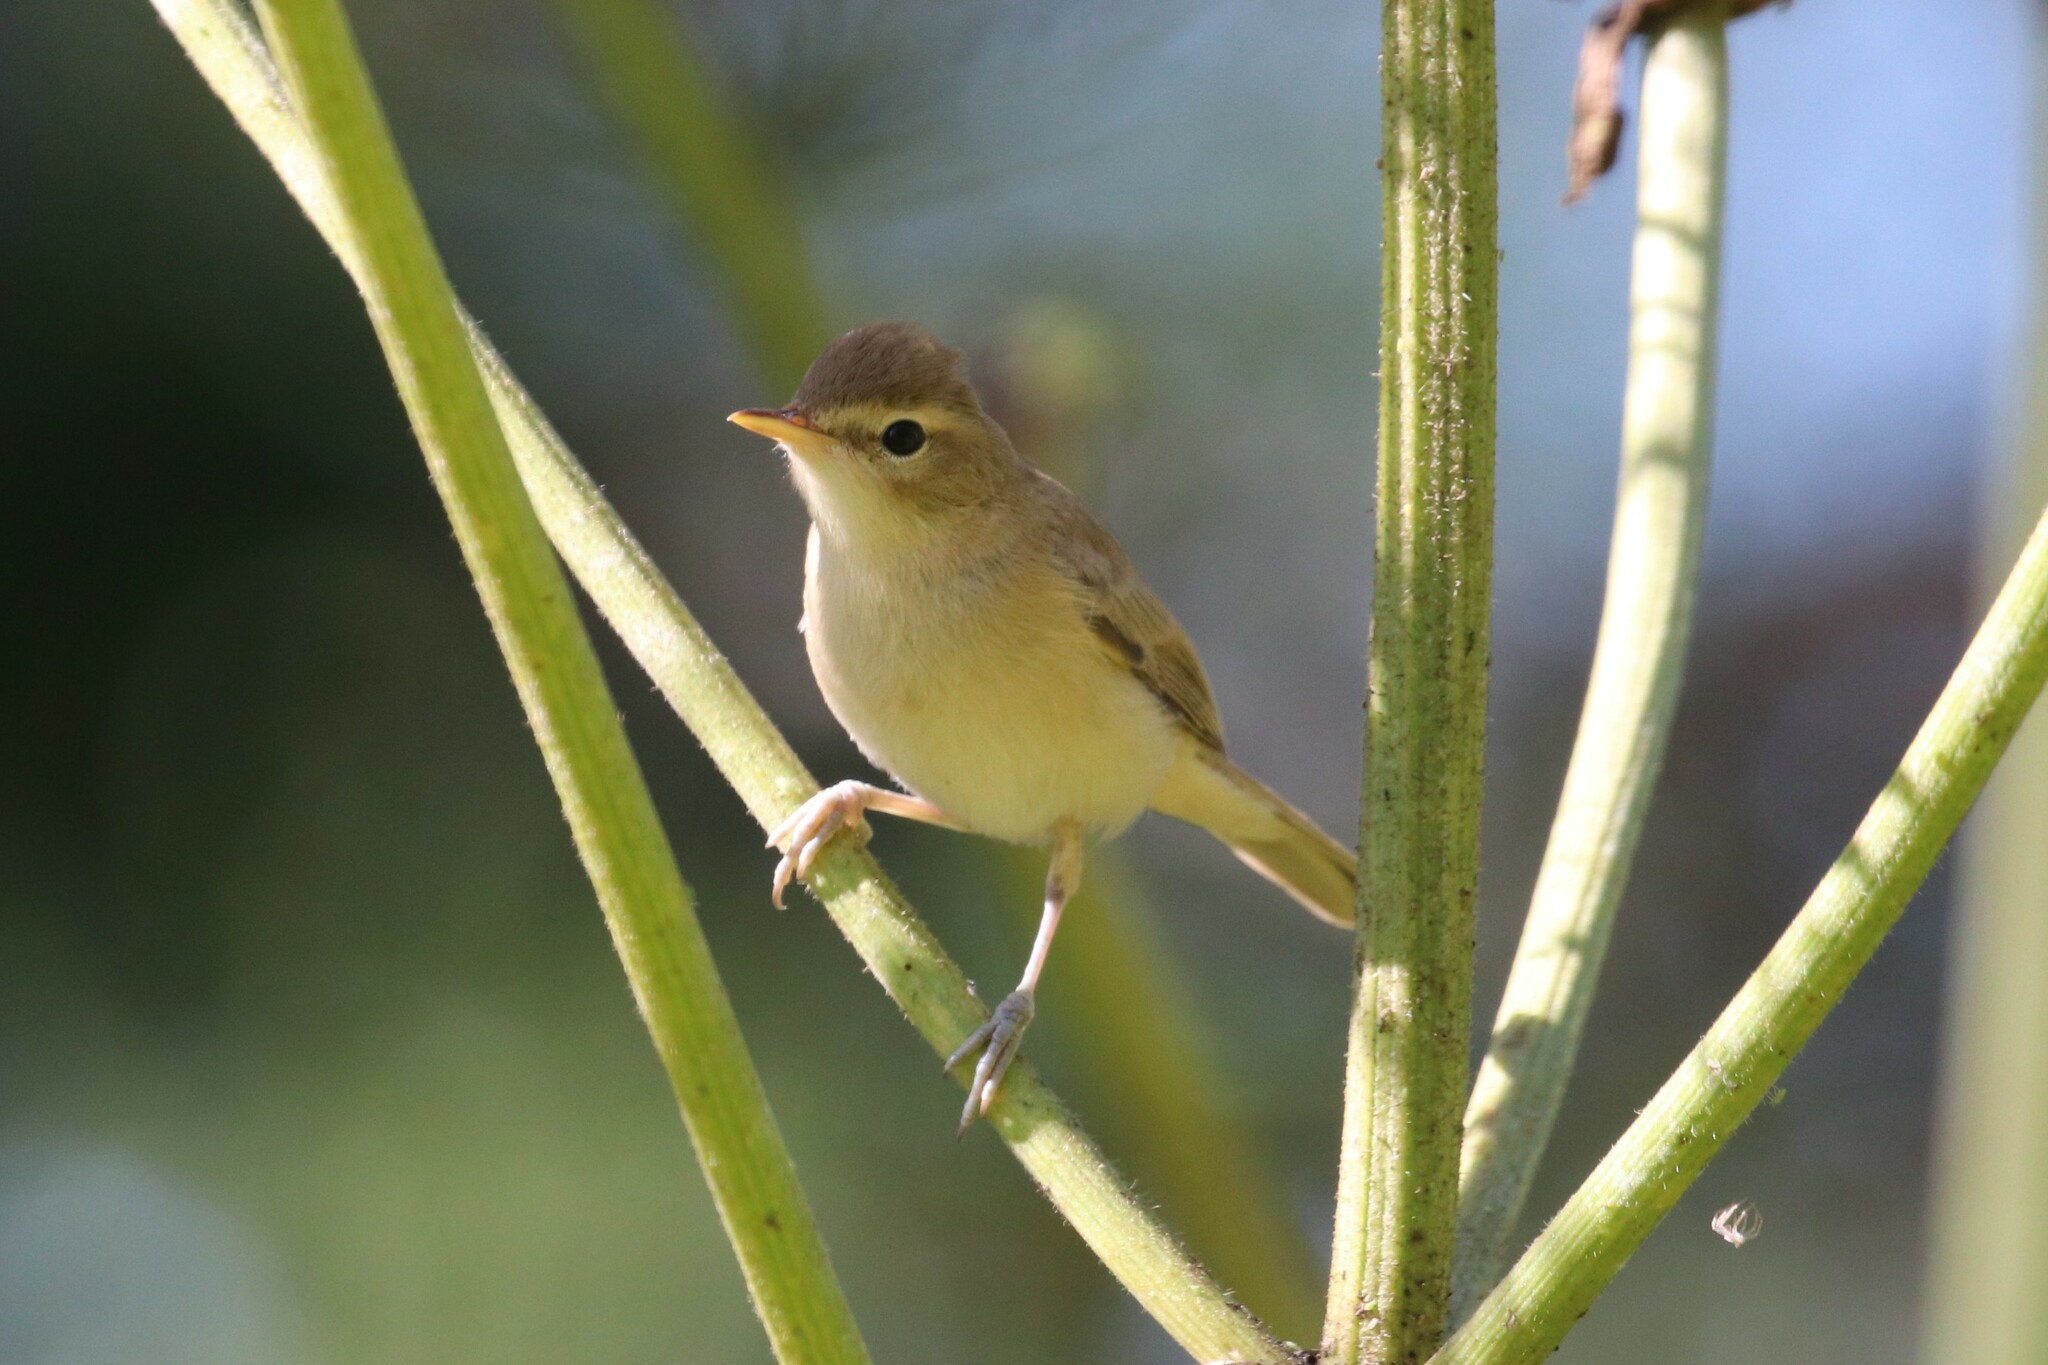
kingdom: Animalia
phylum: Chordata
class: Aves
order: Passeriformes
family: Acrocephalidae
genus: Iduna
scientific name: Iduna caligata
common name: Booted warbler
